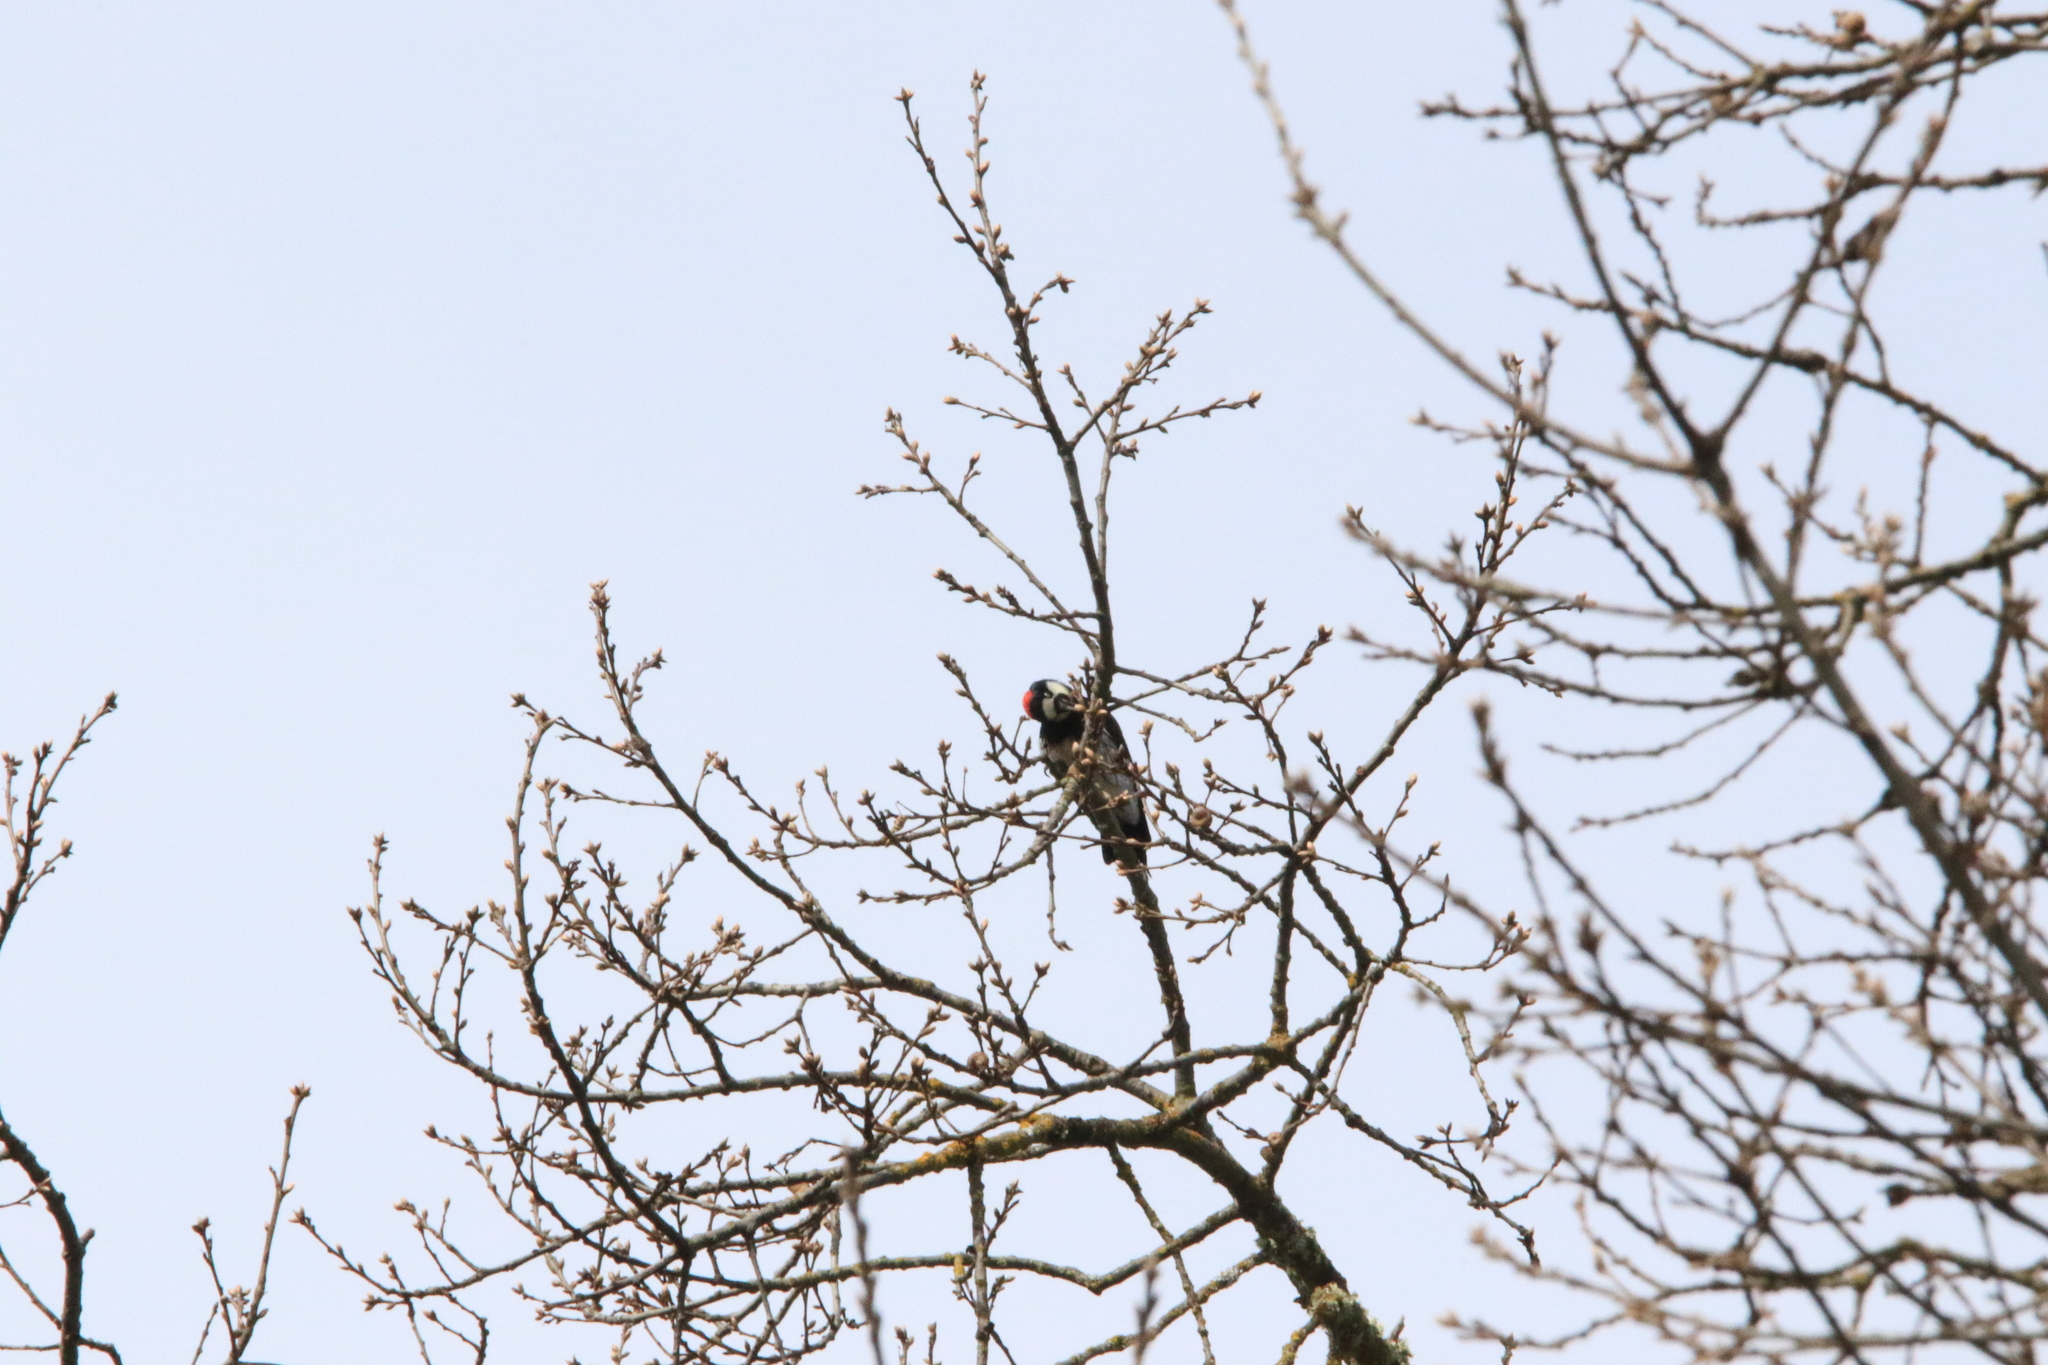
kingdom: Animalia
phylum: Chordata
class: Aves
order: Piciformes
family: Picidae
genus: Melanerpes
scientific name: Melanerpes formicivorus
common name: Acorn woodpecker
